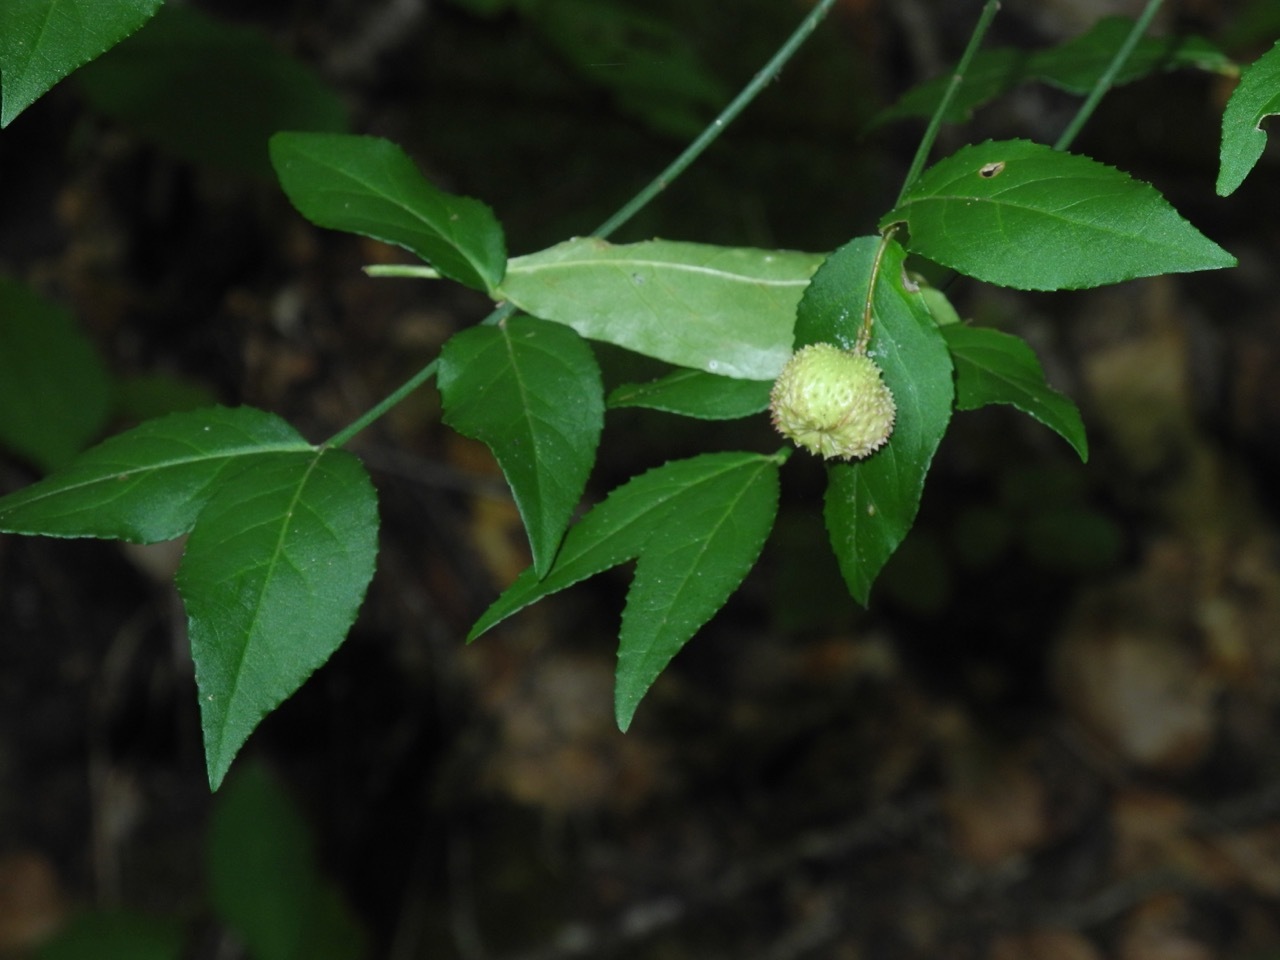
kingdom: Plantae
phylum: Tracheophyta
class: Magnoliopsida
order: Celastrales
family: Celastraceae
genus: Euonymus
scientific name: Euonymus americanus
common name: Bursting-heart
